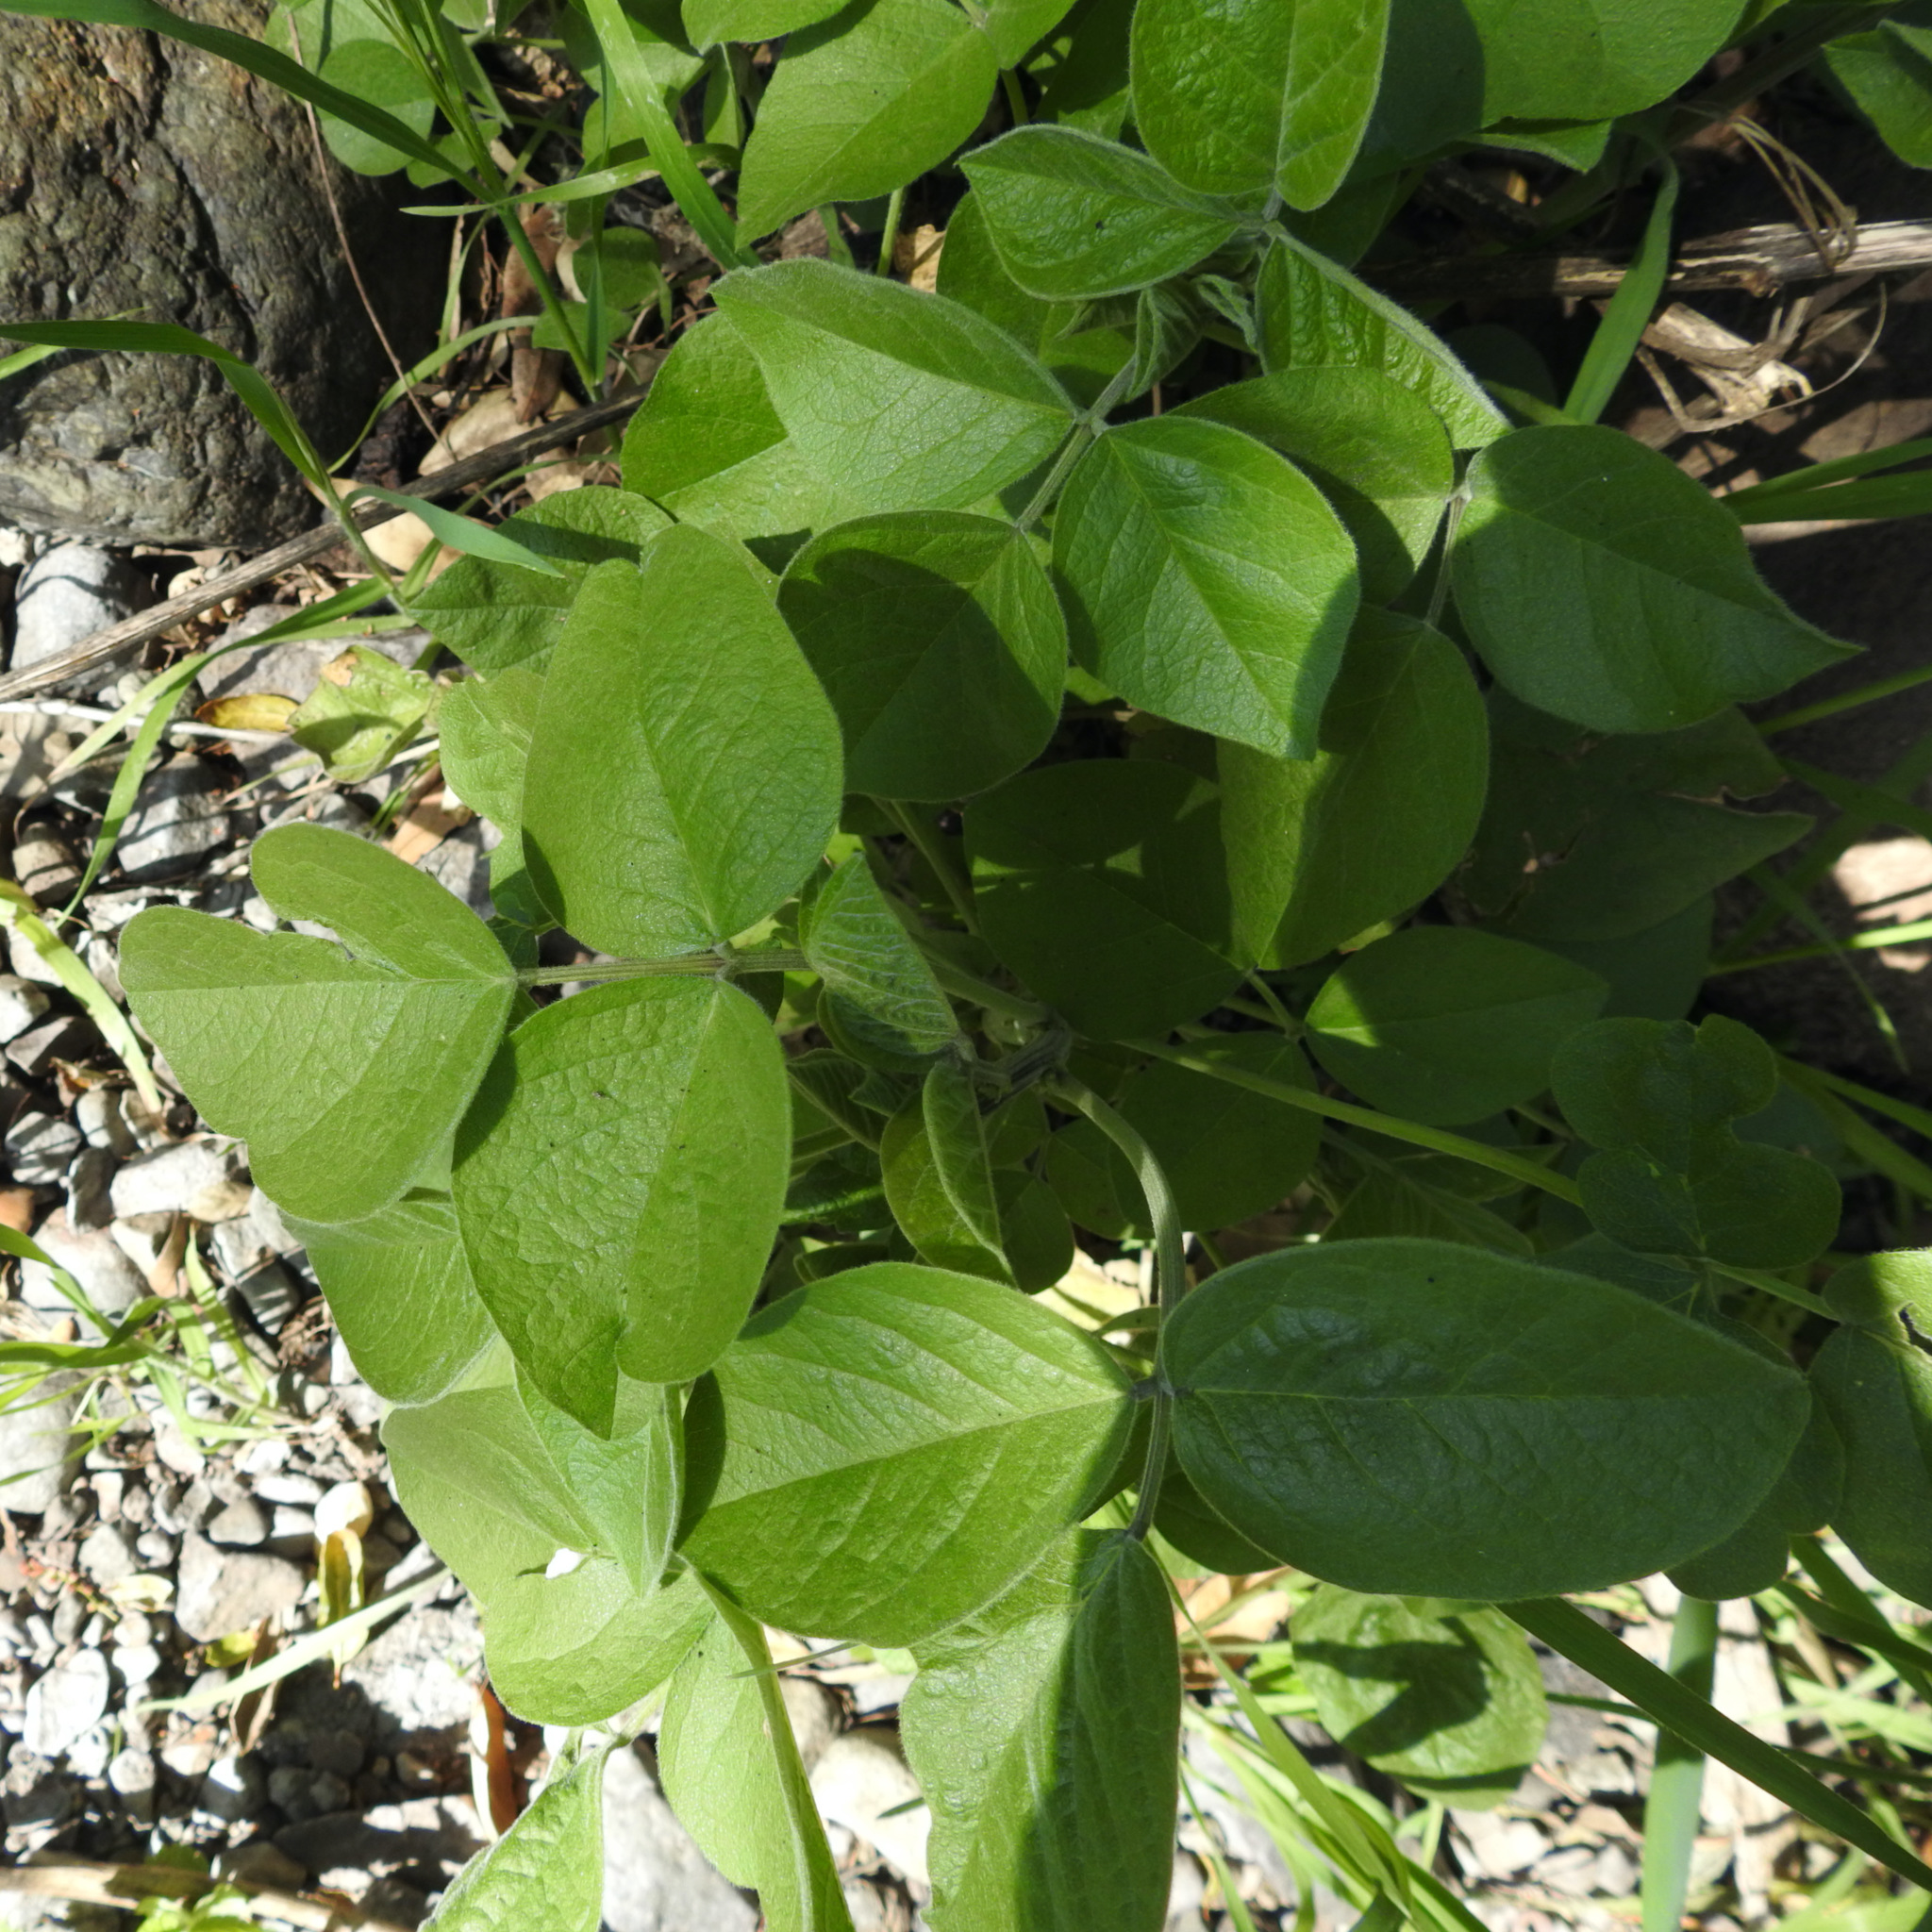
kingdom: Plantae
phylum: Tracheophyta
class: Magnoliopsida
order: Fabales
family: Fabaceae
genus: Hoita
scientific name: Hoita macrostachya
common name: Leatherroot
